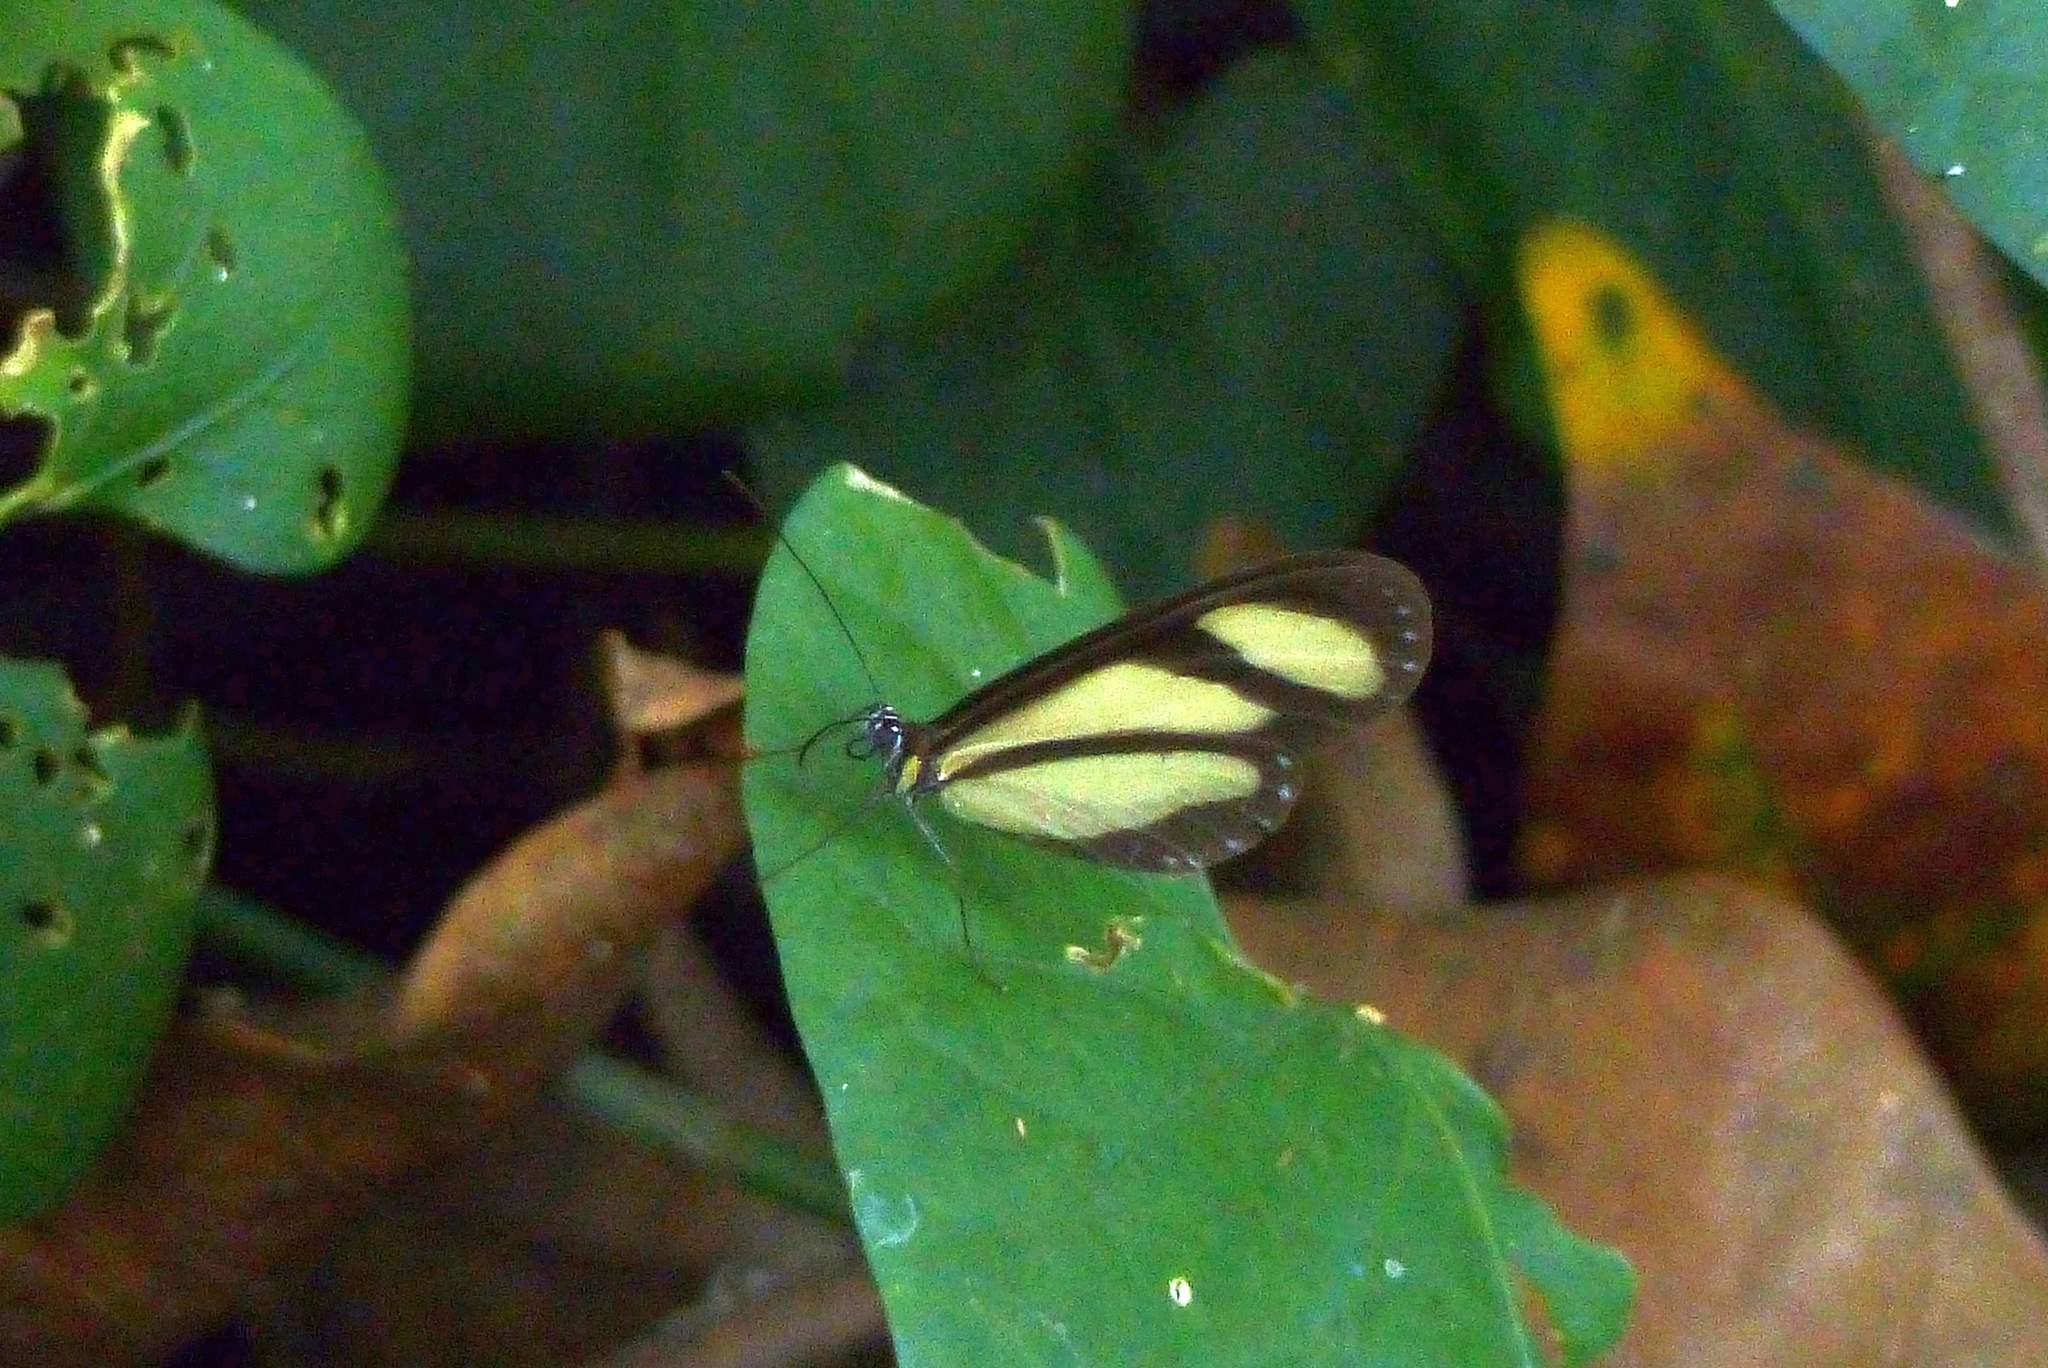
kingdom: Animalia
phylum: Arthropoda
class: Insecta
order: Lepidoptera
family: Nymphalidae
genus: Heteroscada
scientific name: Heteroscada reckia
